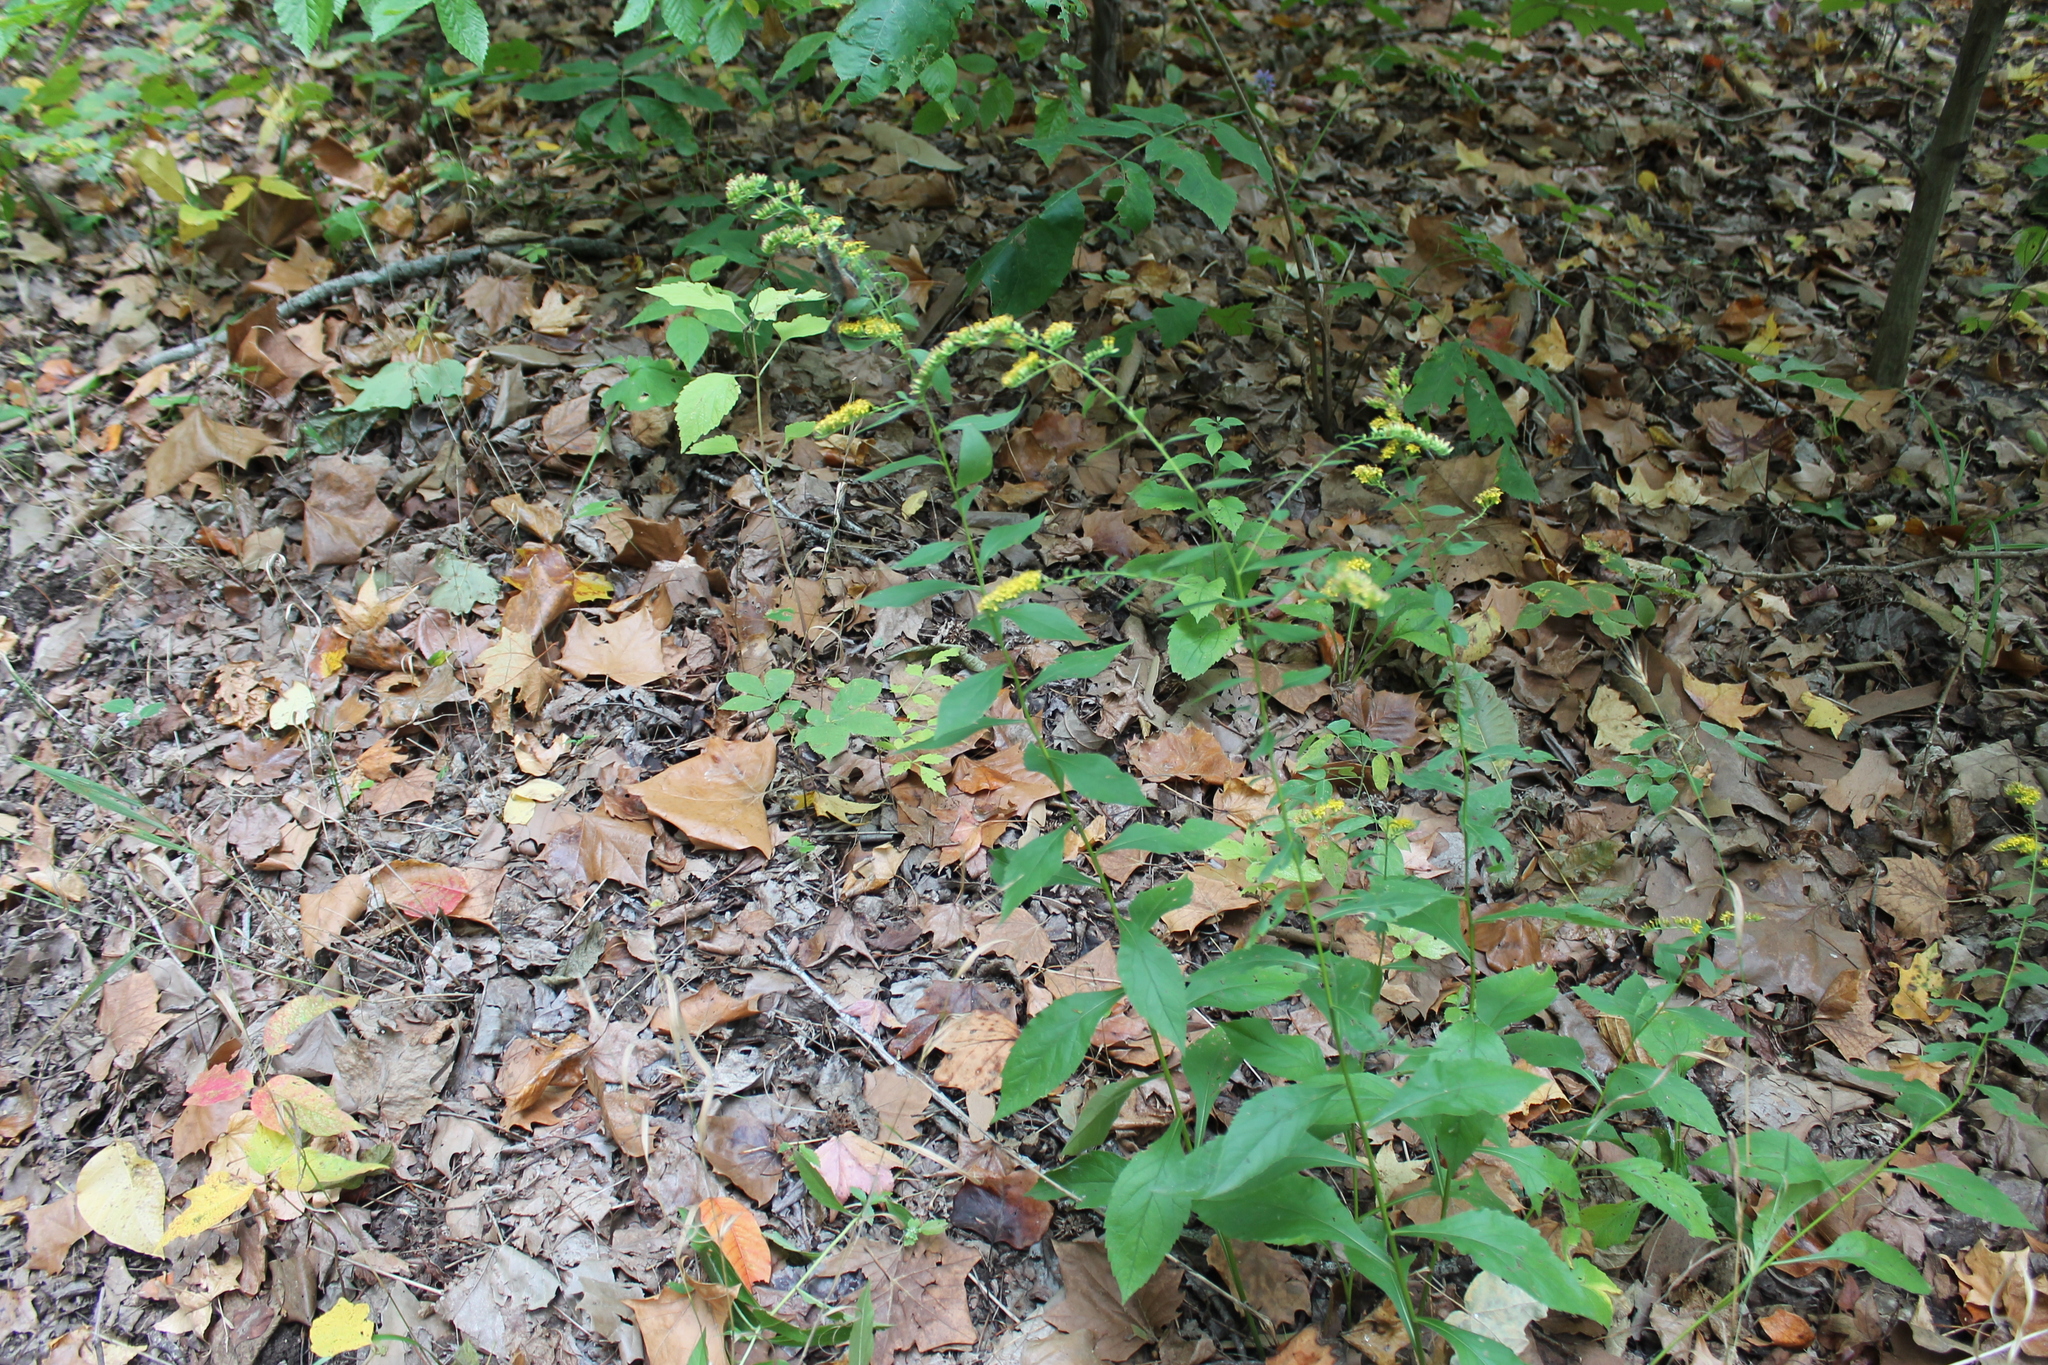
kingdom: Plantae
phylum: Tracheophyta
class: Magnoliopsida
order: Asterales
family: Asteraceae
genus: Solidago
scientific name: Solidago ulmifolia
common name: Elm-leaf goldenrod
